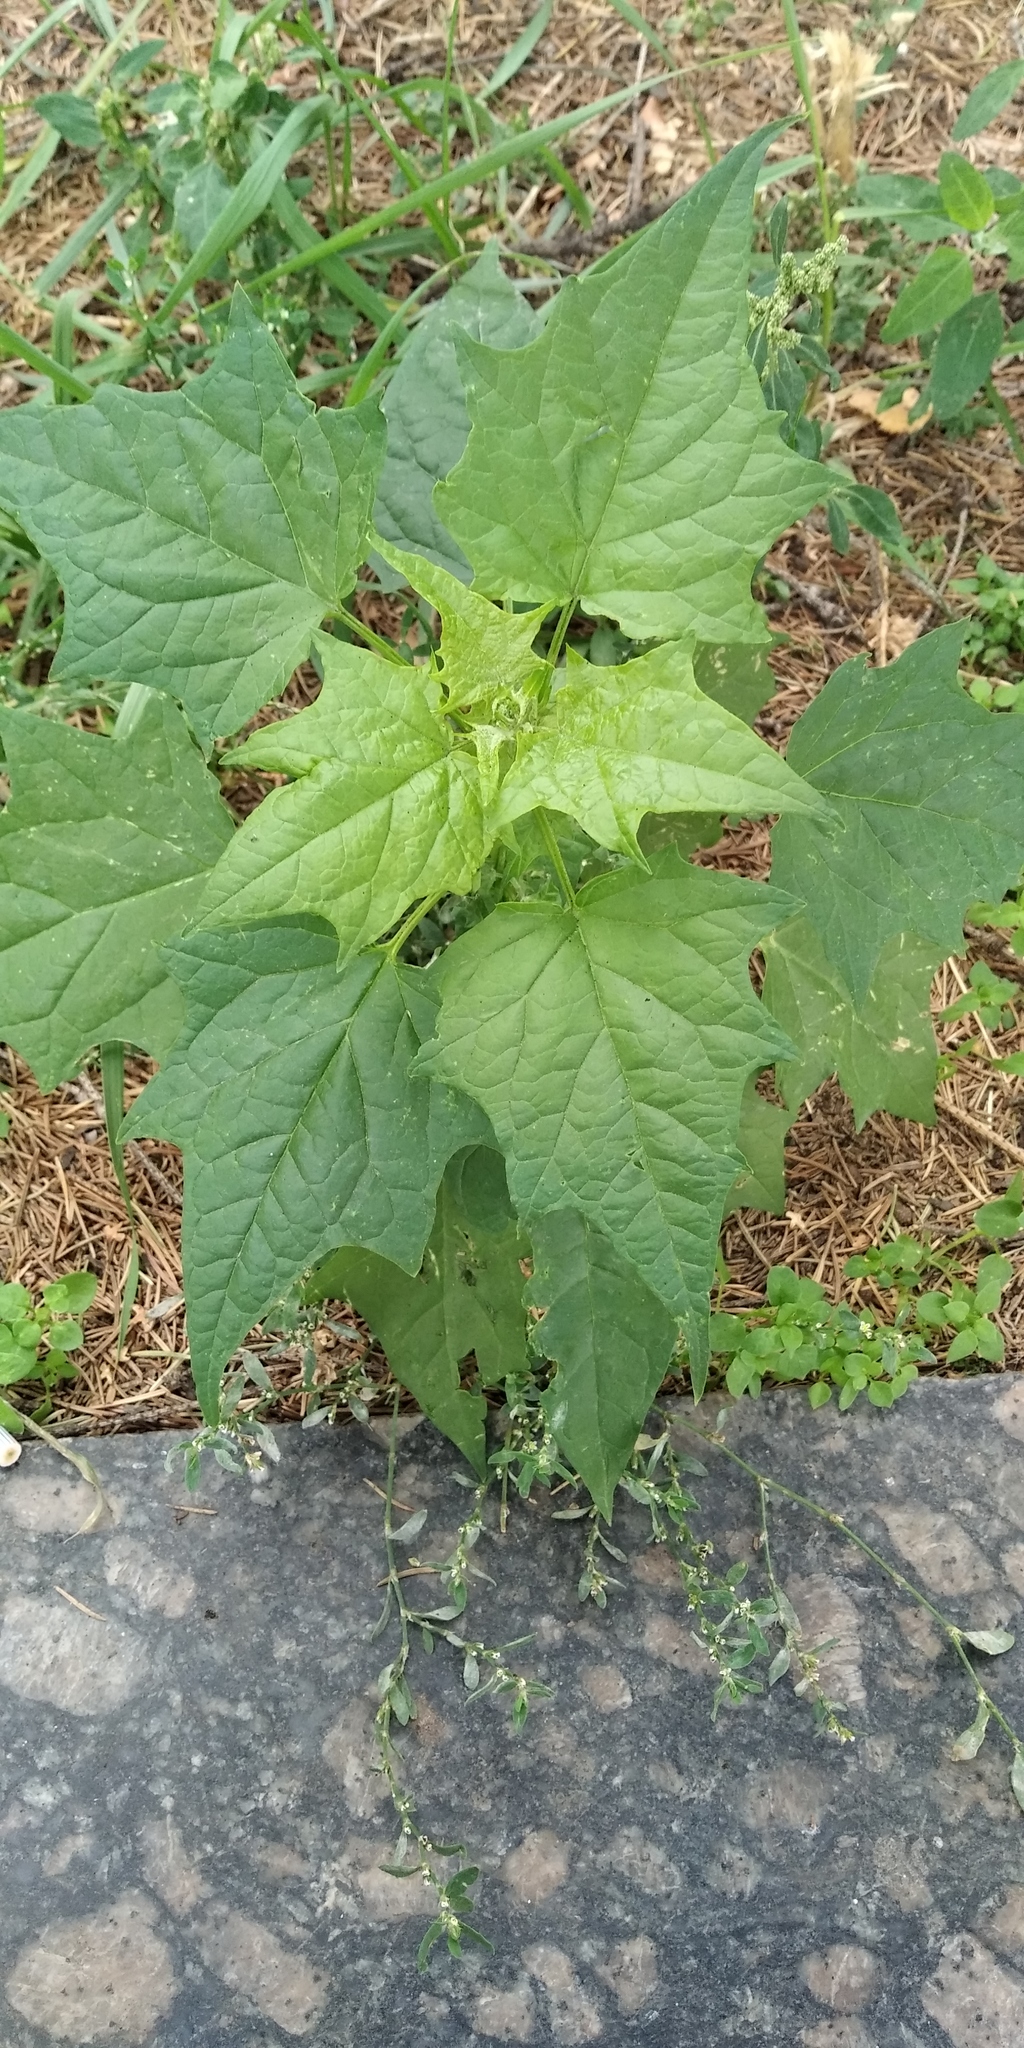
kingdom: Plantae
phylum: Tracheophyta
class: Magnoliopsida
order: Caryophyllales
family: Amaranthaceae
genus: Chenopodiastrum
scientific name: Chenopodiastrum hybridum
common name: Mapleleaf goosefoot
